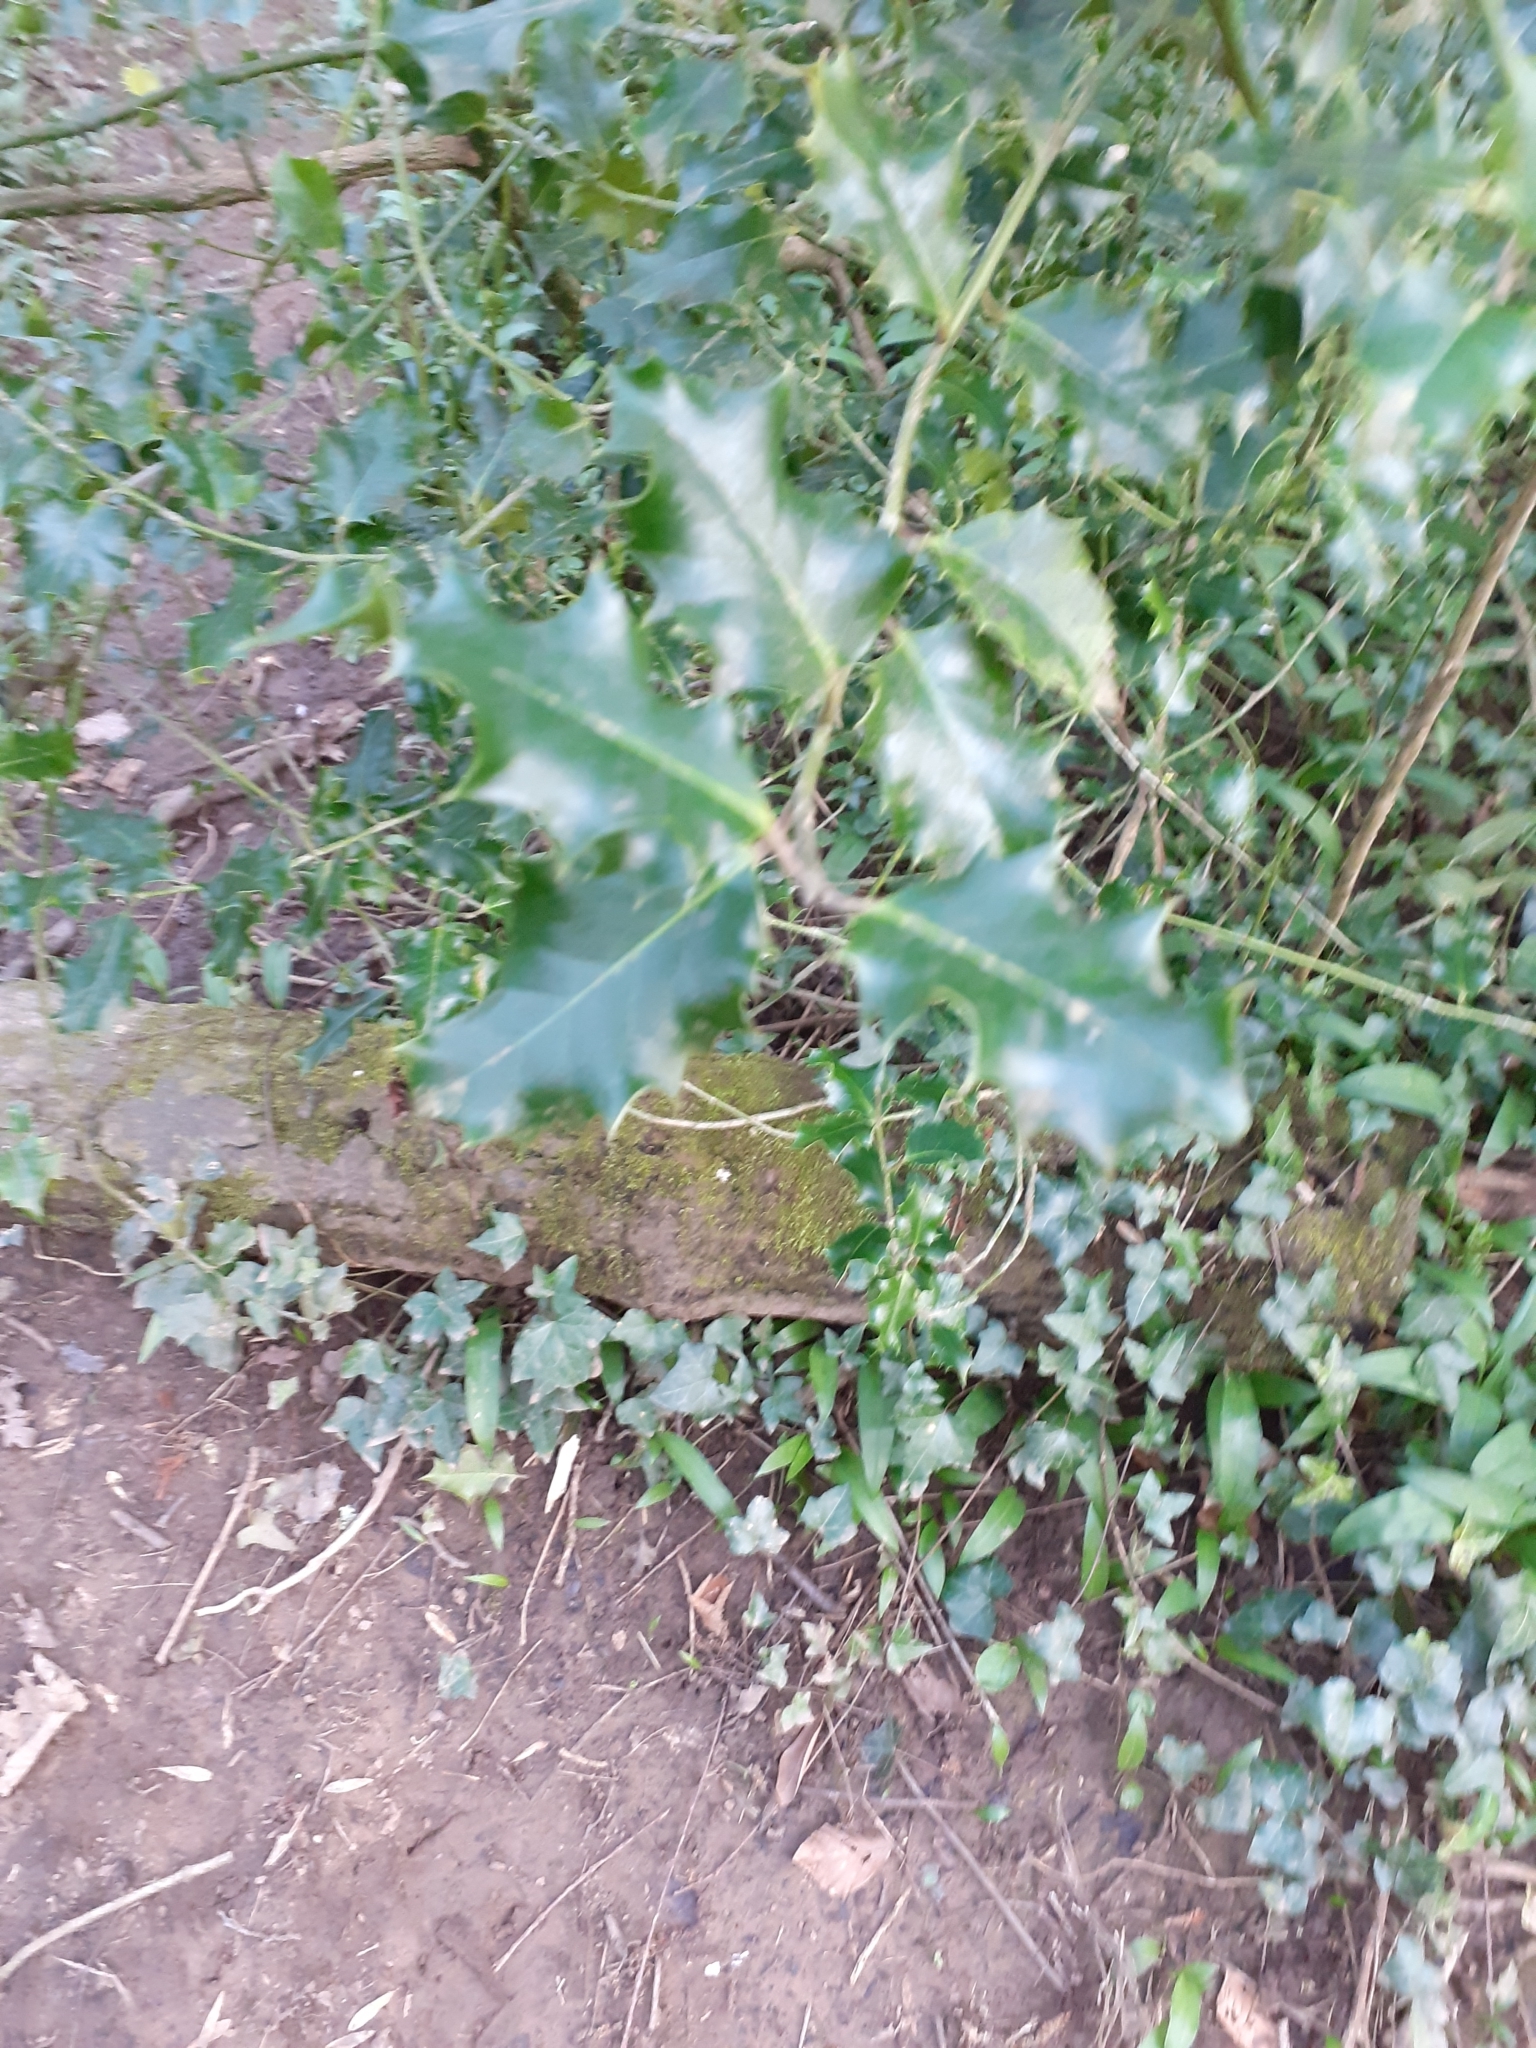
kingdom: Plantae
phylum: Tracheophyta
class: Magnoliopsida
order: Aquifoliales
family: Aquifoliaceae
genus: Ilex
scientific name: Ilex aquifolium
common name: English holly
